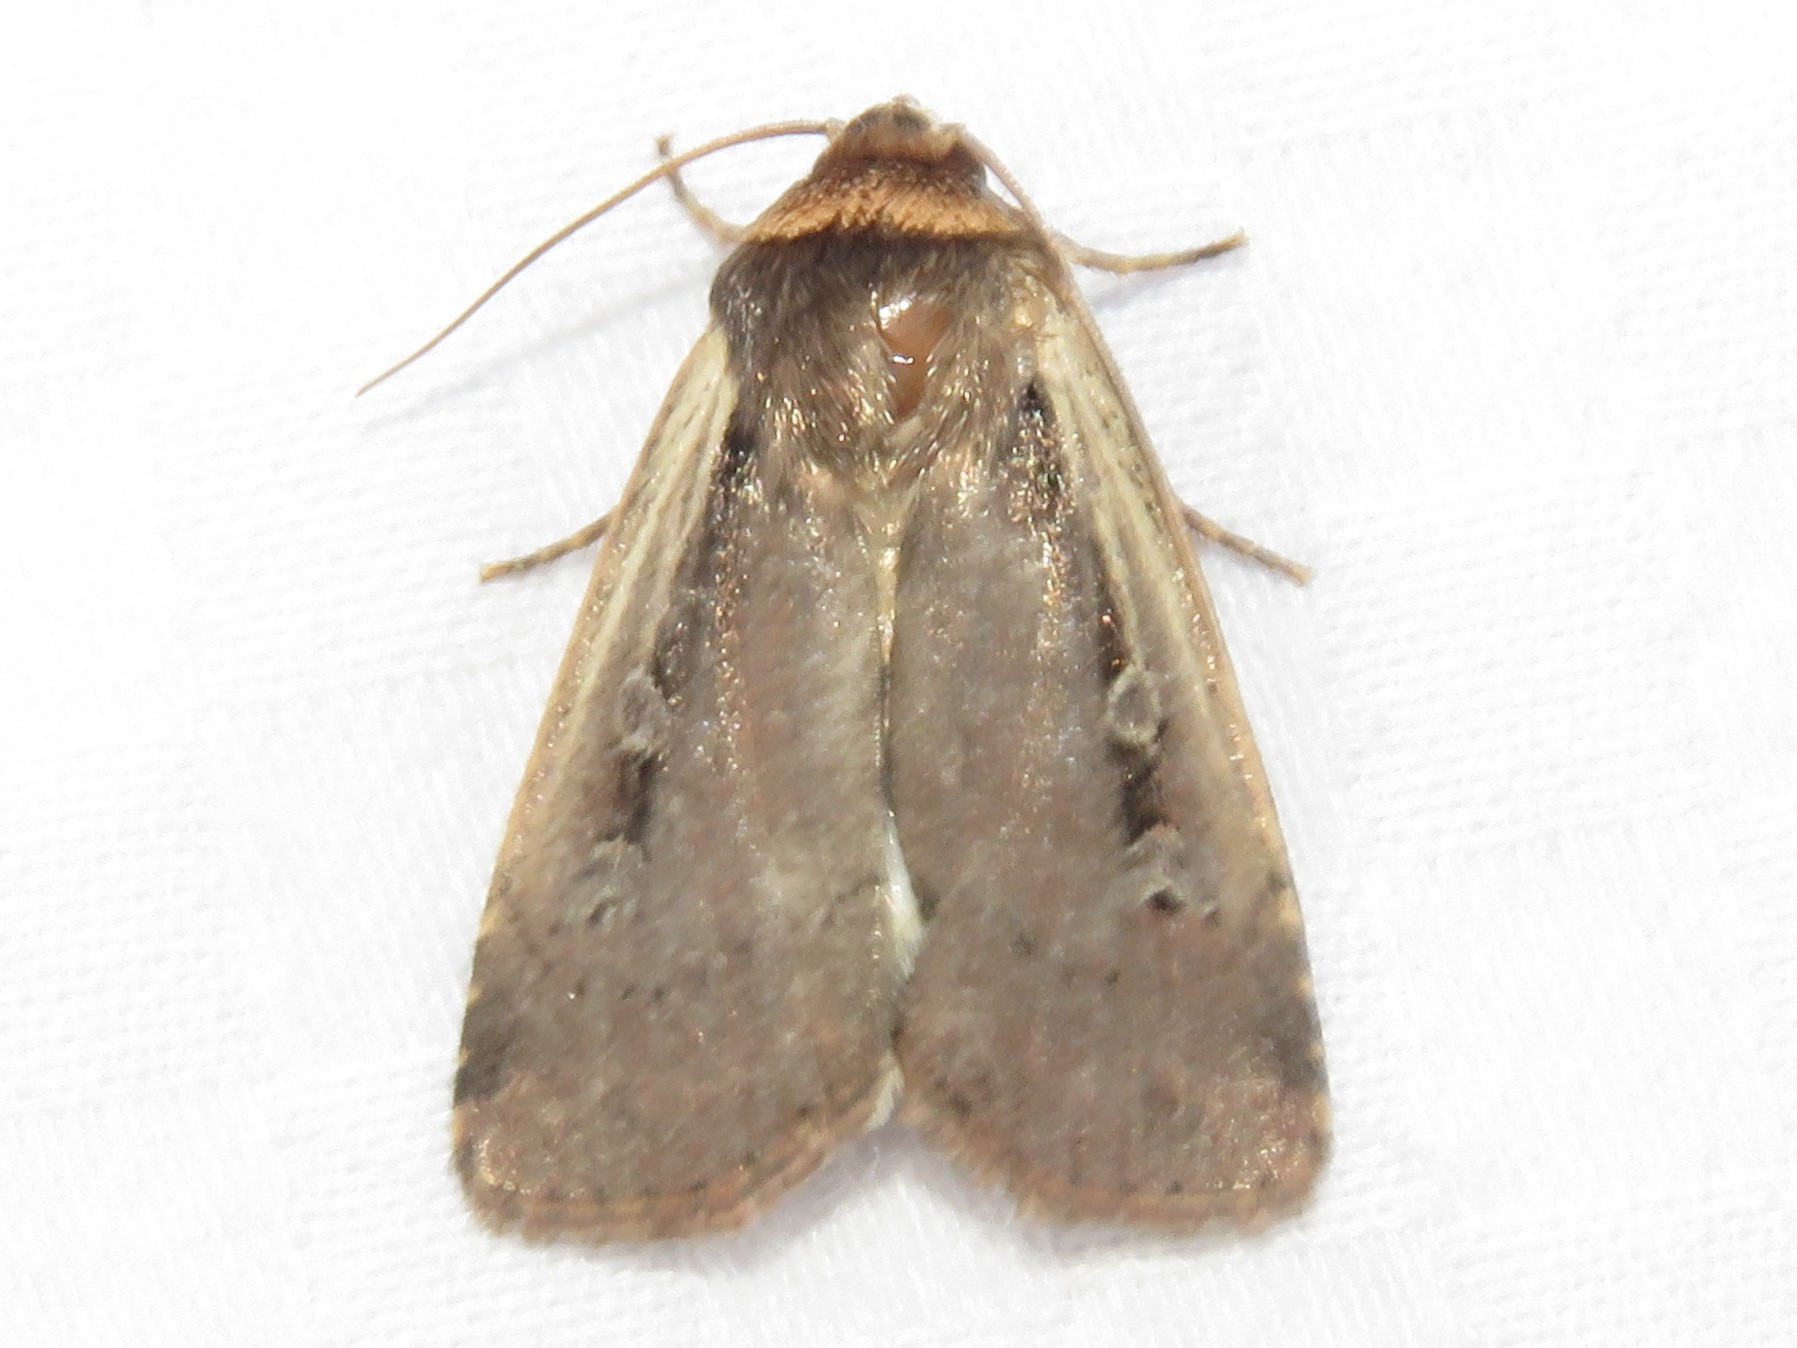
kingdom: Animalia
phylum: Arthropoda
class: Insecta
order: Lepidoptera
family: Noctuidae
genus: Ochropleura
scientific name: Ochropleura implecta
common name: Flame-shouldered dart
